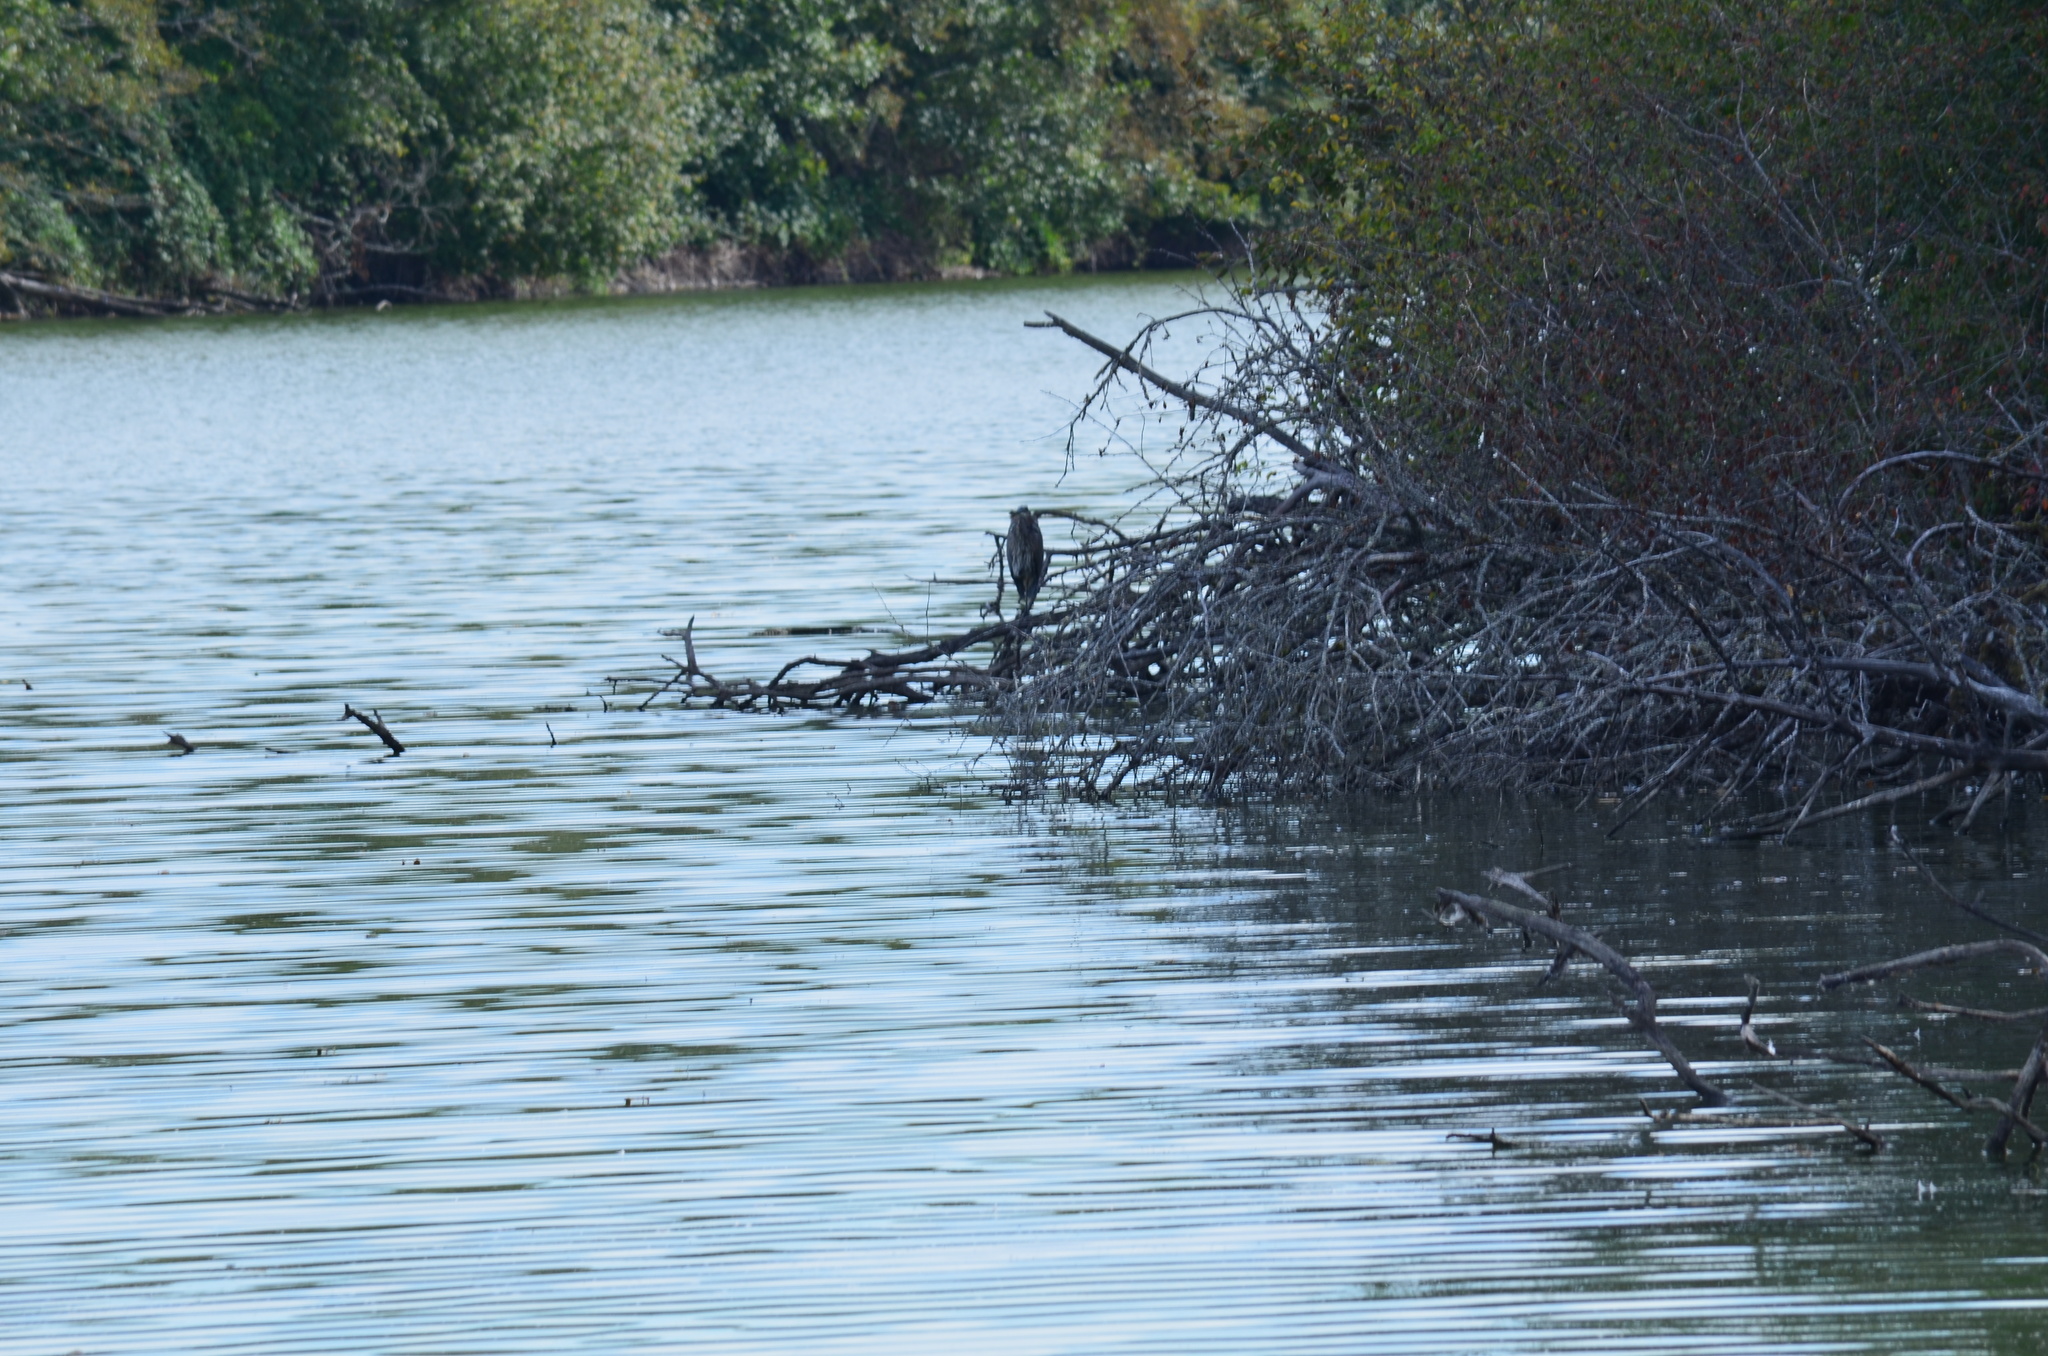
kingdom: Animalia
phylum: Chordata
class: Aves
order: Pelecaniformes
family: Ardeidae
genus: Ardea
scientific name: Ardea herodias
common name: Great blue heron
